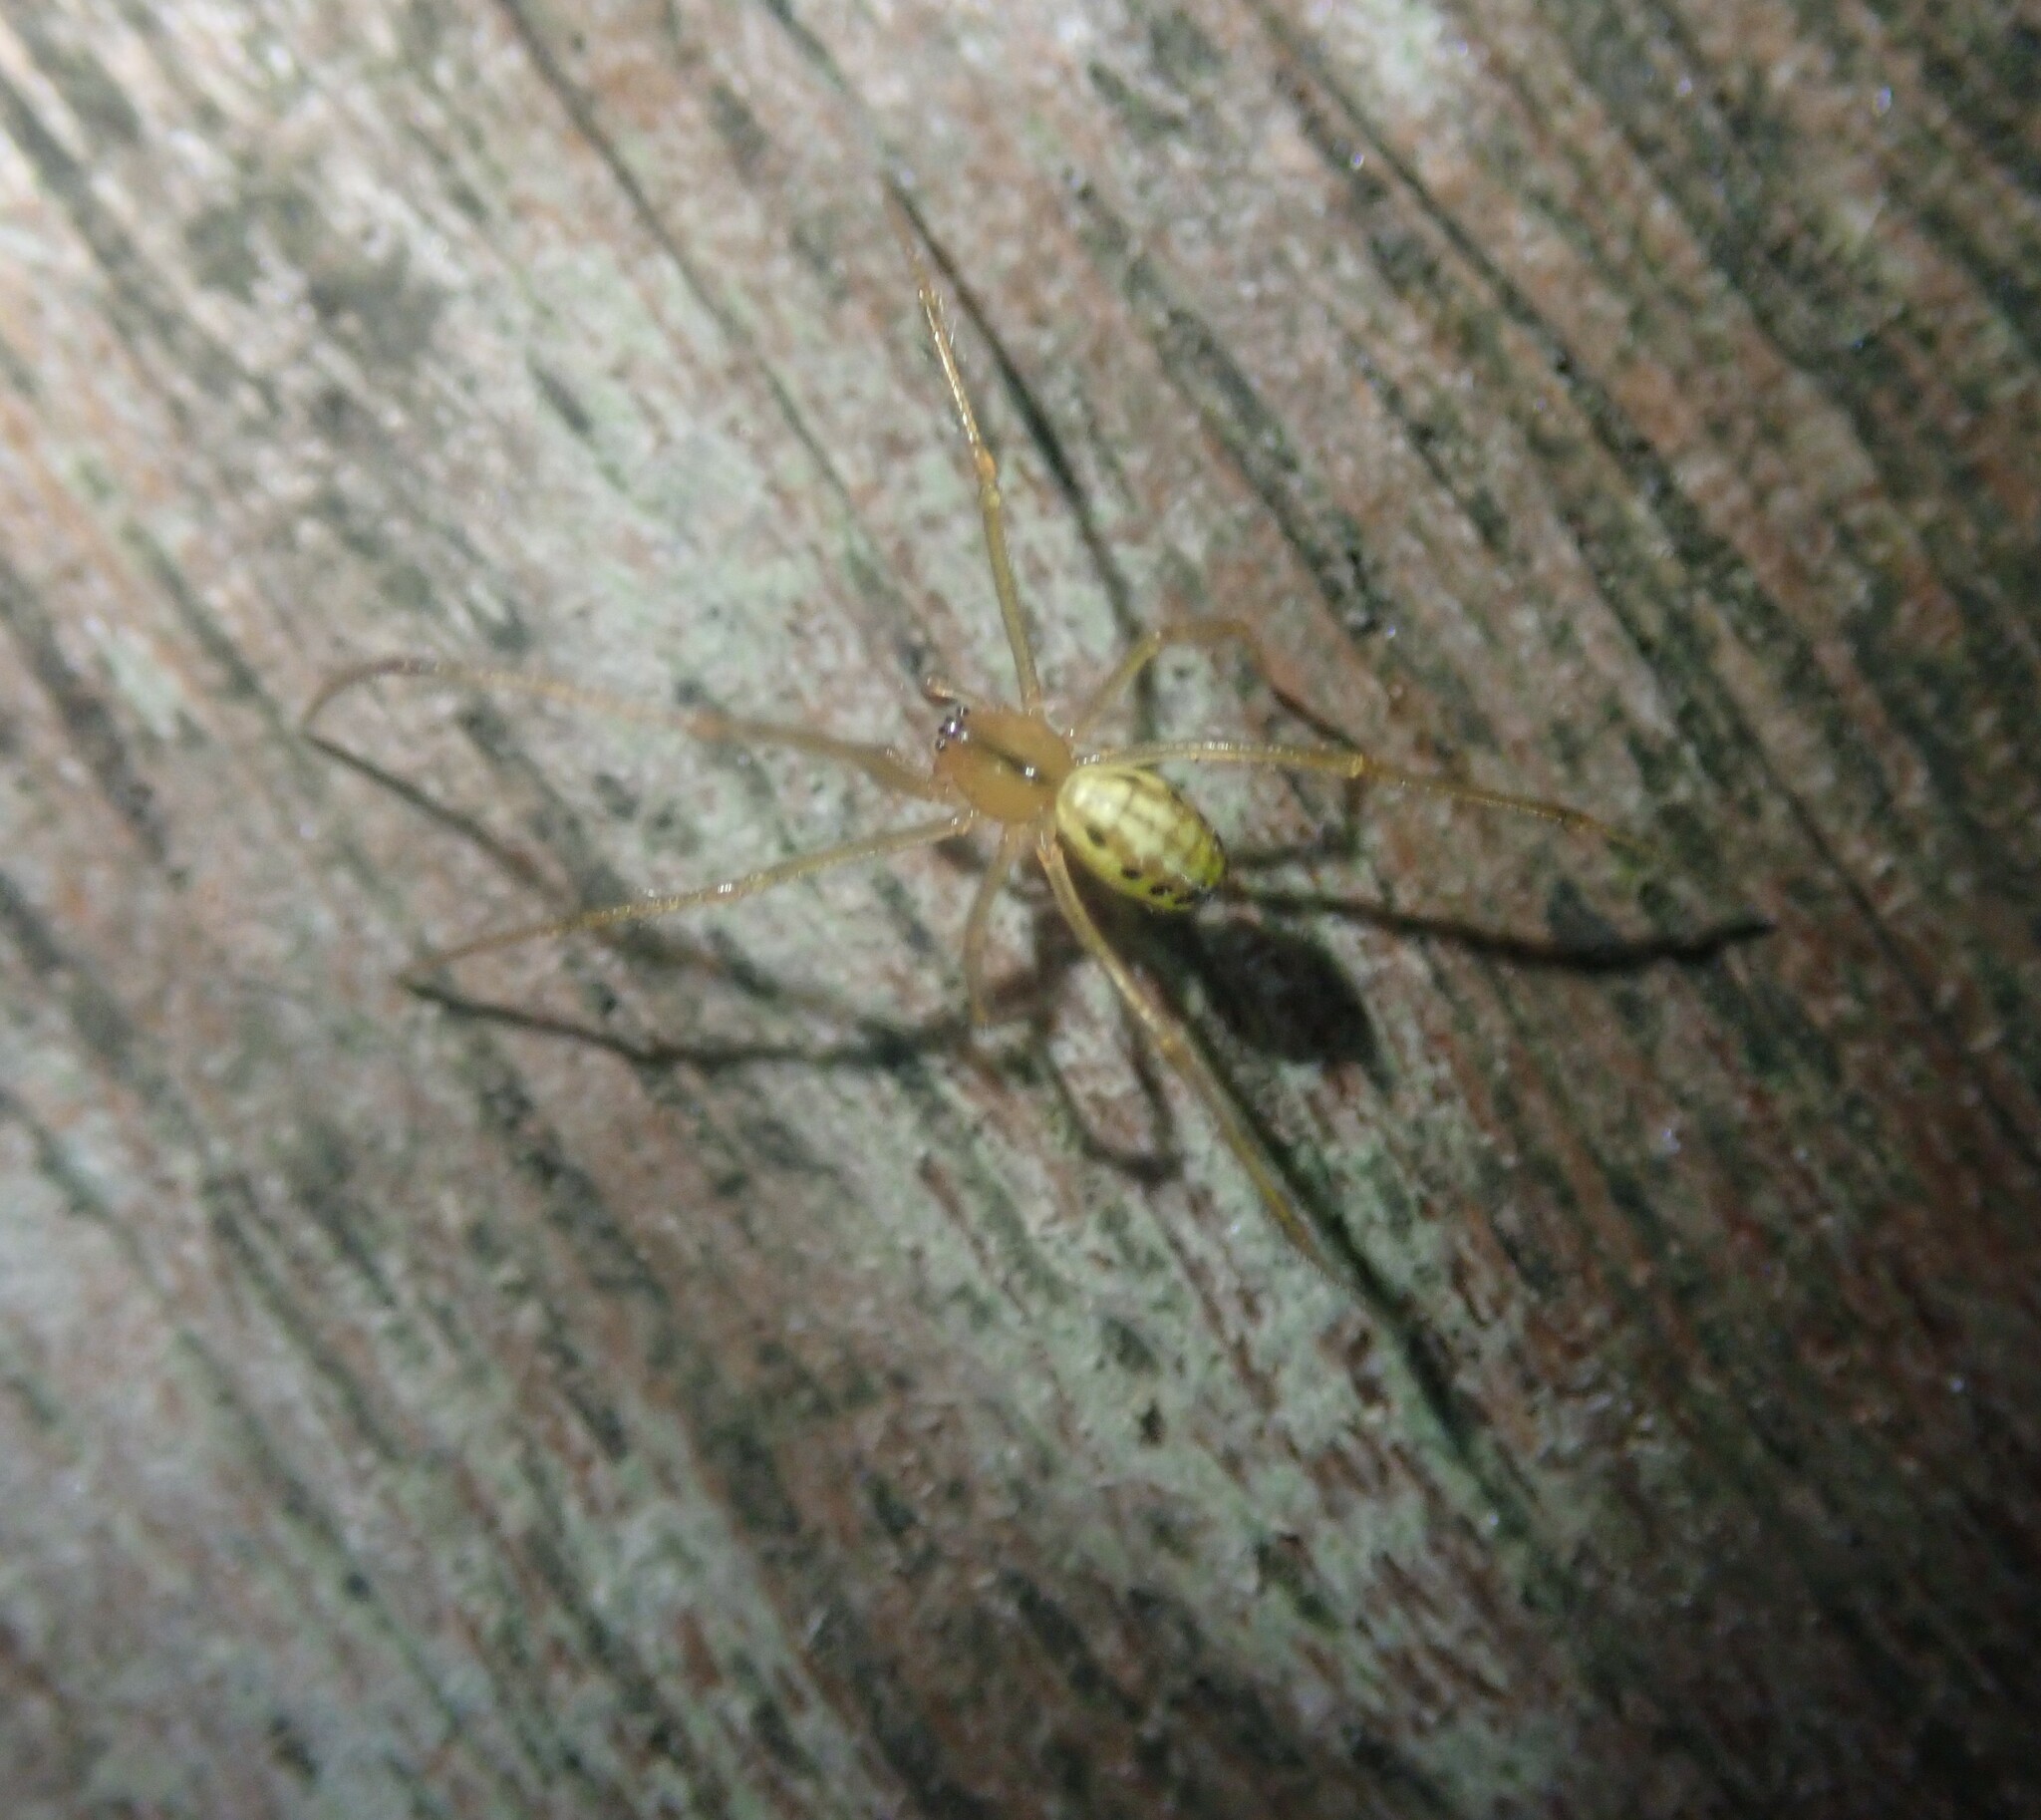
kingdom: Animalia
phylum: Arthropoda
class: Arachnida
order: Araneae
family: Theridiidae
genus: Enoplognatha
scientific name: Enoplognatha ovata
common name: Common candy-striped spider
